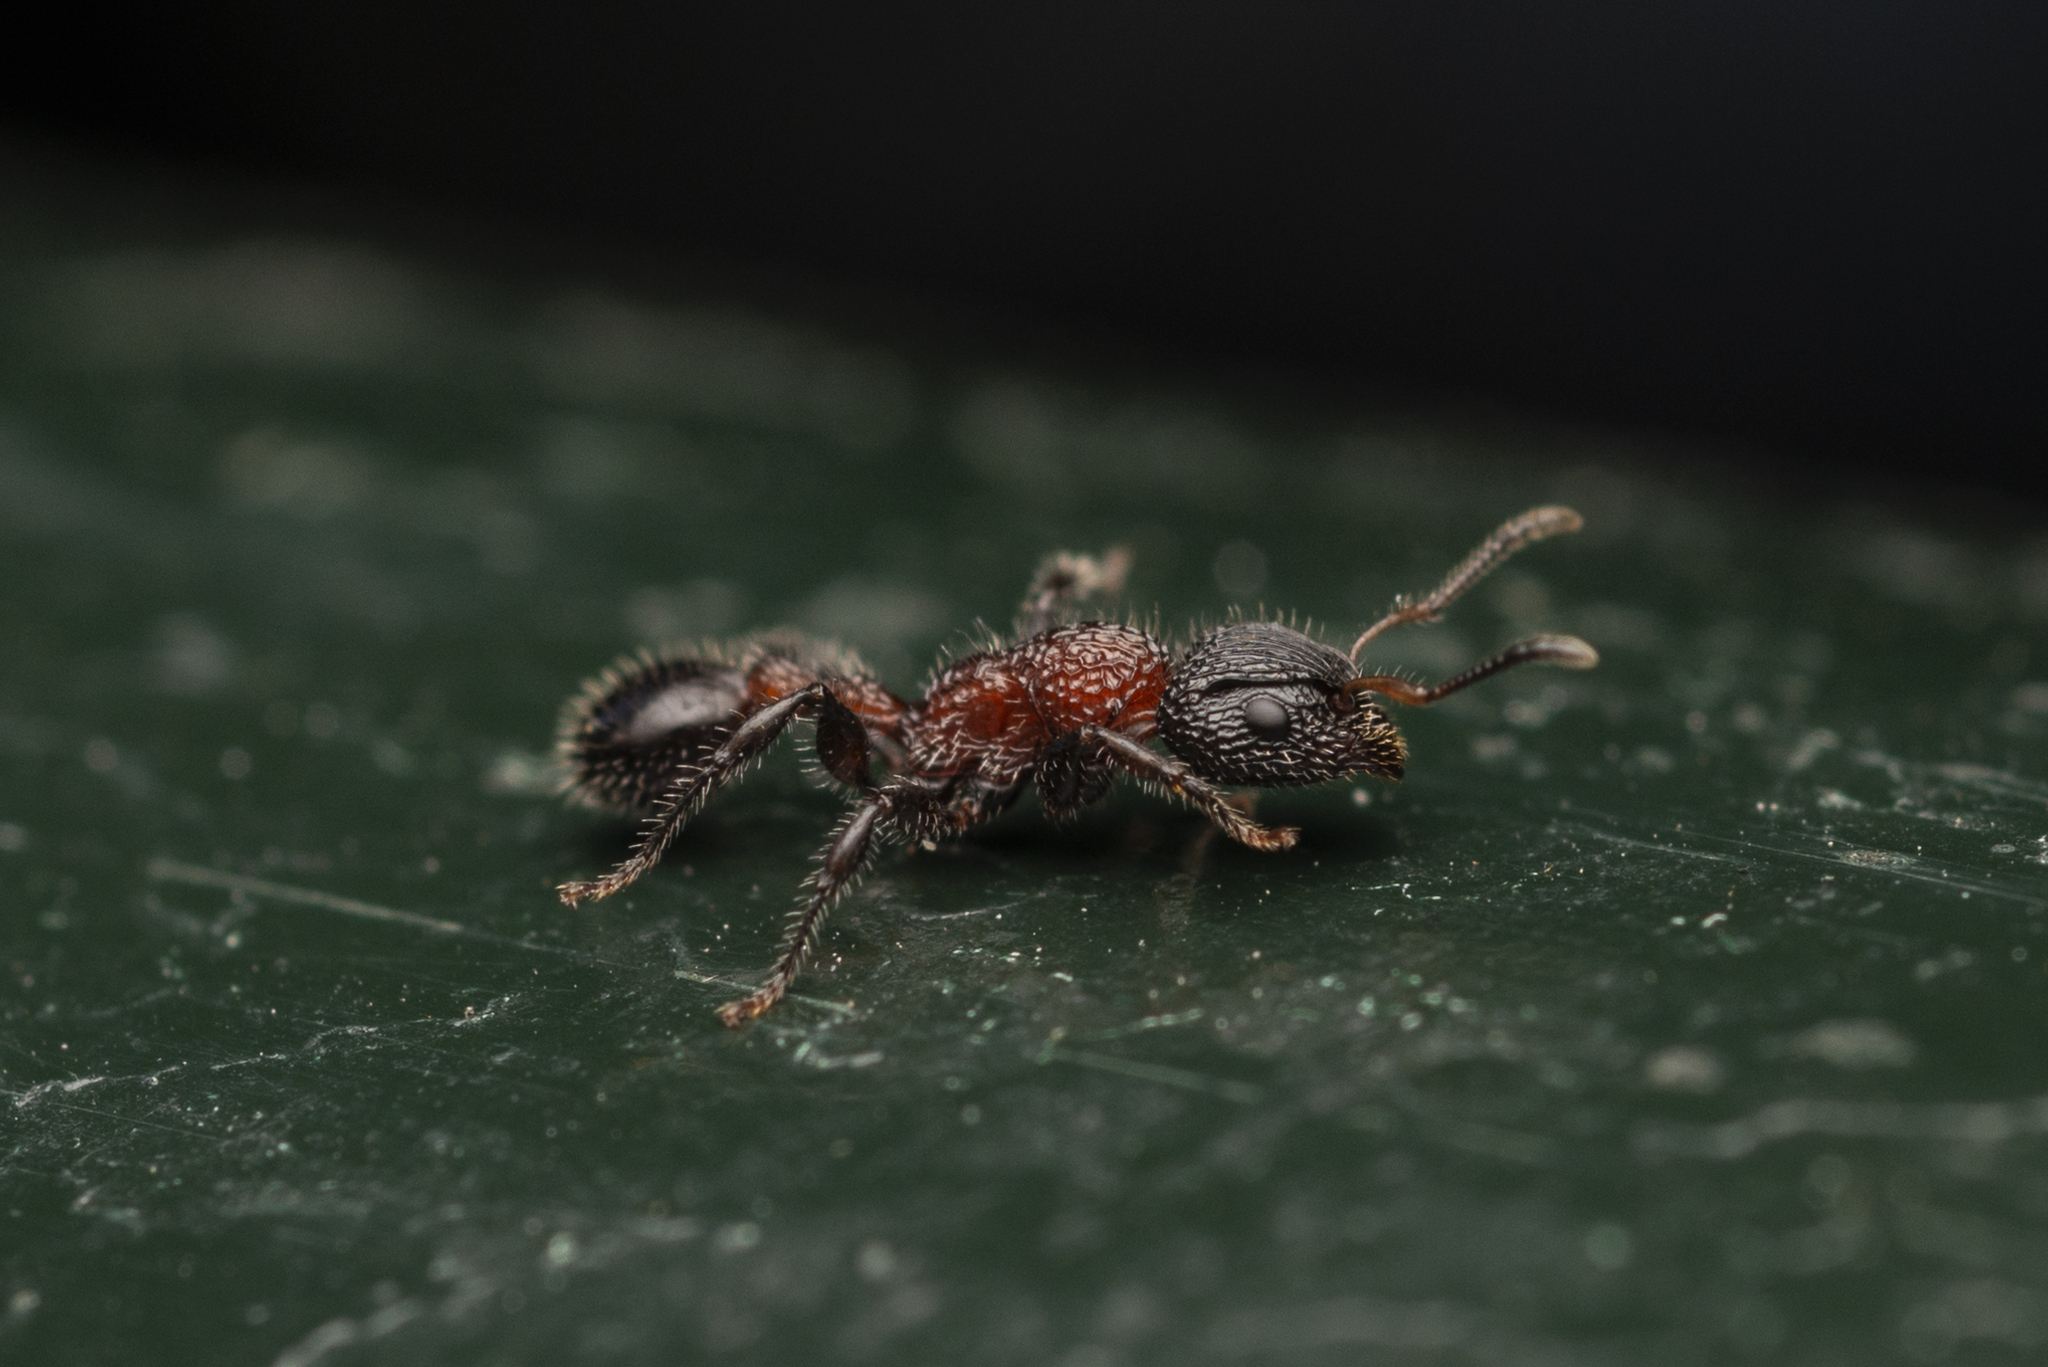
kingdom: Animalia
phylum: Arthropoda
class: Insecta
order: Hymenoptera
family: Formicidae
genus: Dilobocondyla
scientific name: Dilobocondyla fouqueti
